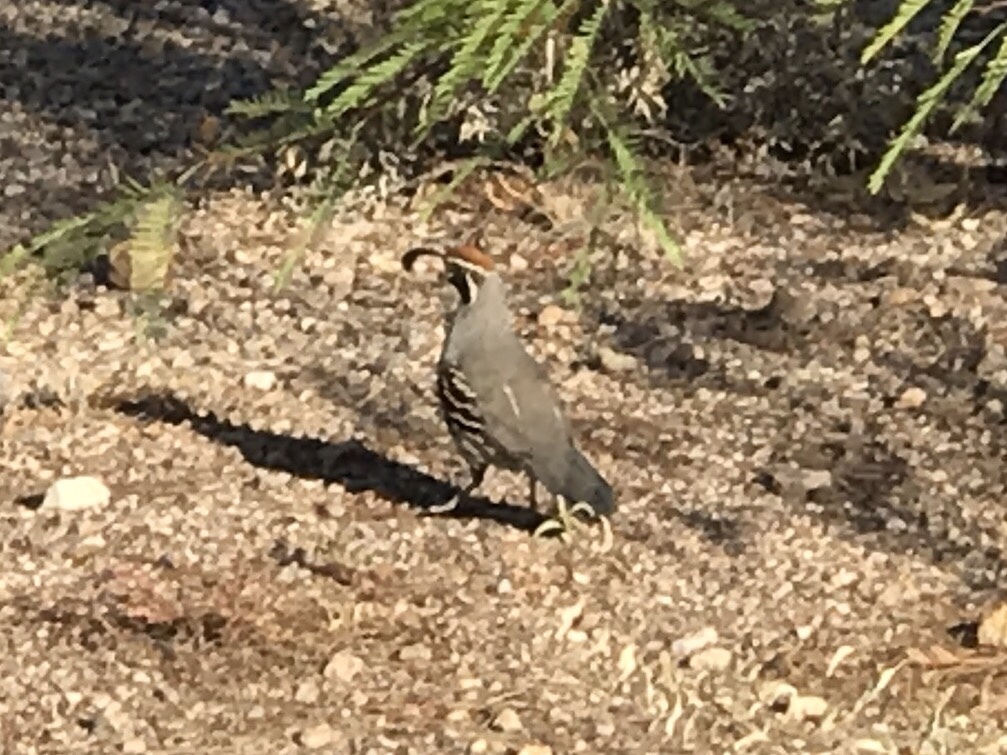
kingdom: Animalia
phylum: Chordata
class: Aves
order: Galliformes
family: Odontophoridae
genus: Callipepla
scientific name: Callipepla gambelii
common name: Gambel's quail
